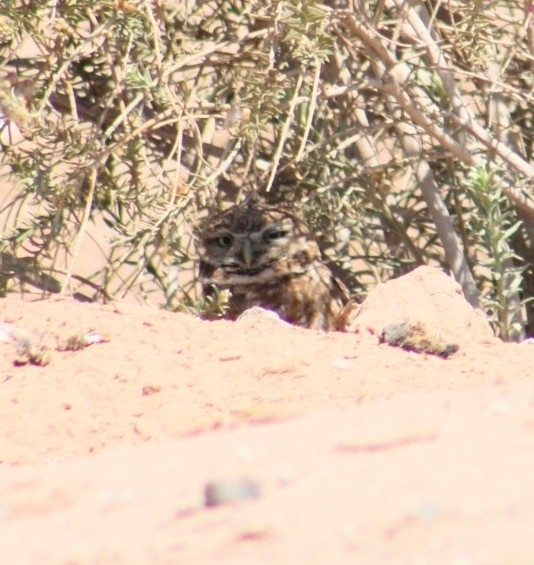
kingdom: Animalia
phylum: Chordata
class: Aves
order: Strigiformes
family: Strigidae
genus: Athene
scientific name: Athene cunicularia
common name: Burrowing owl
